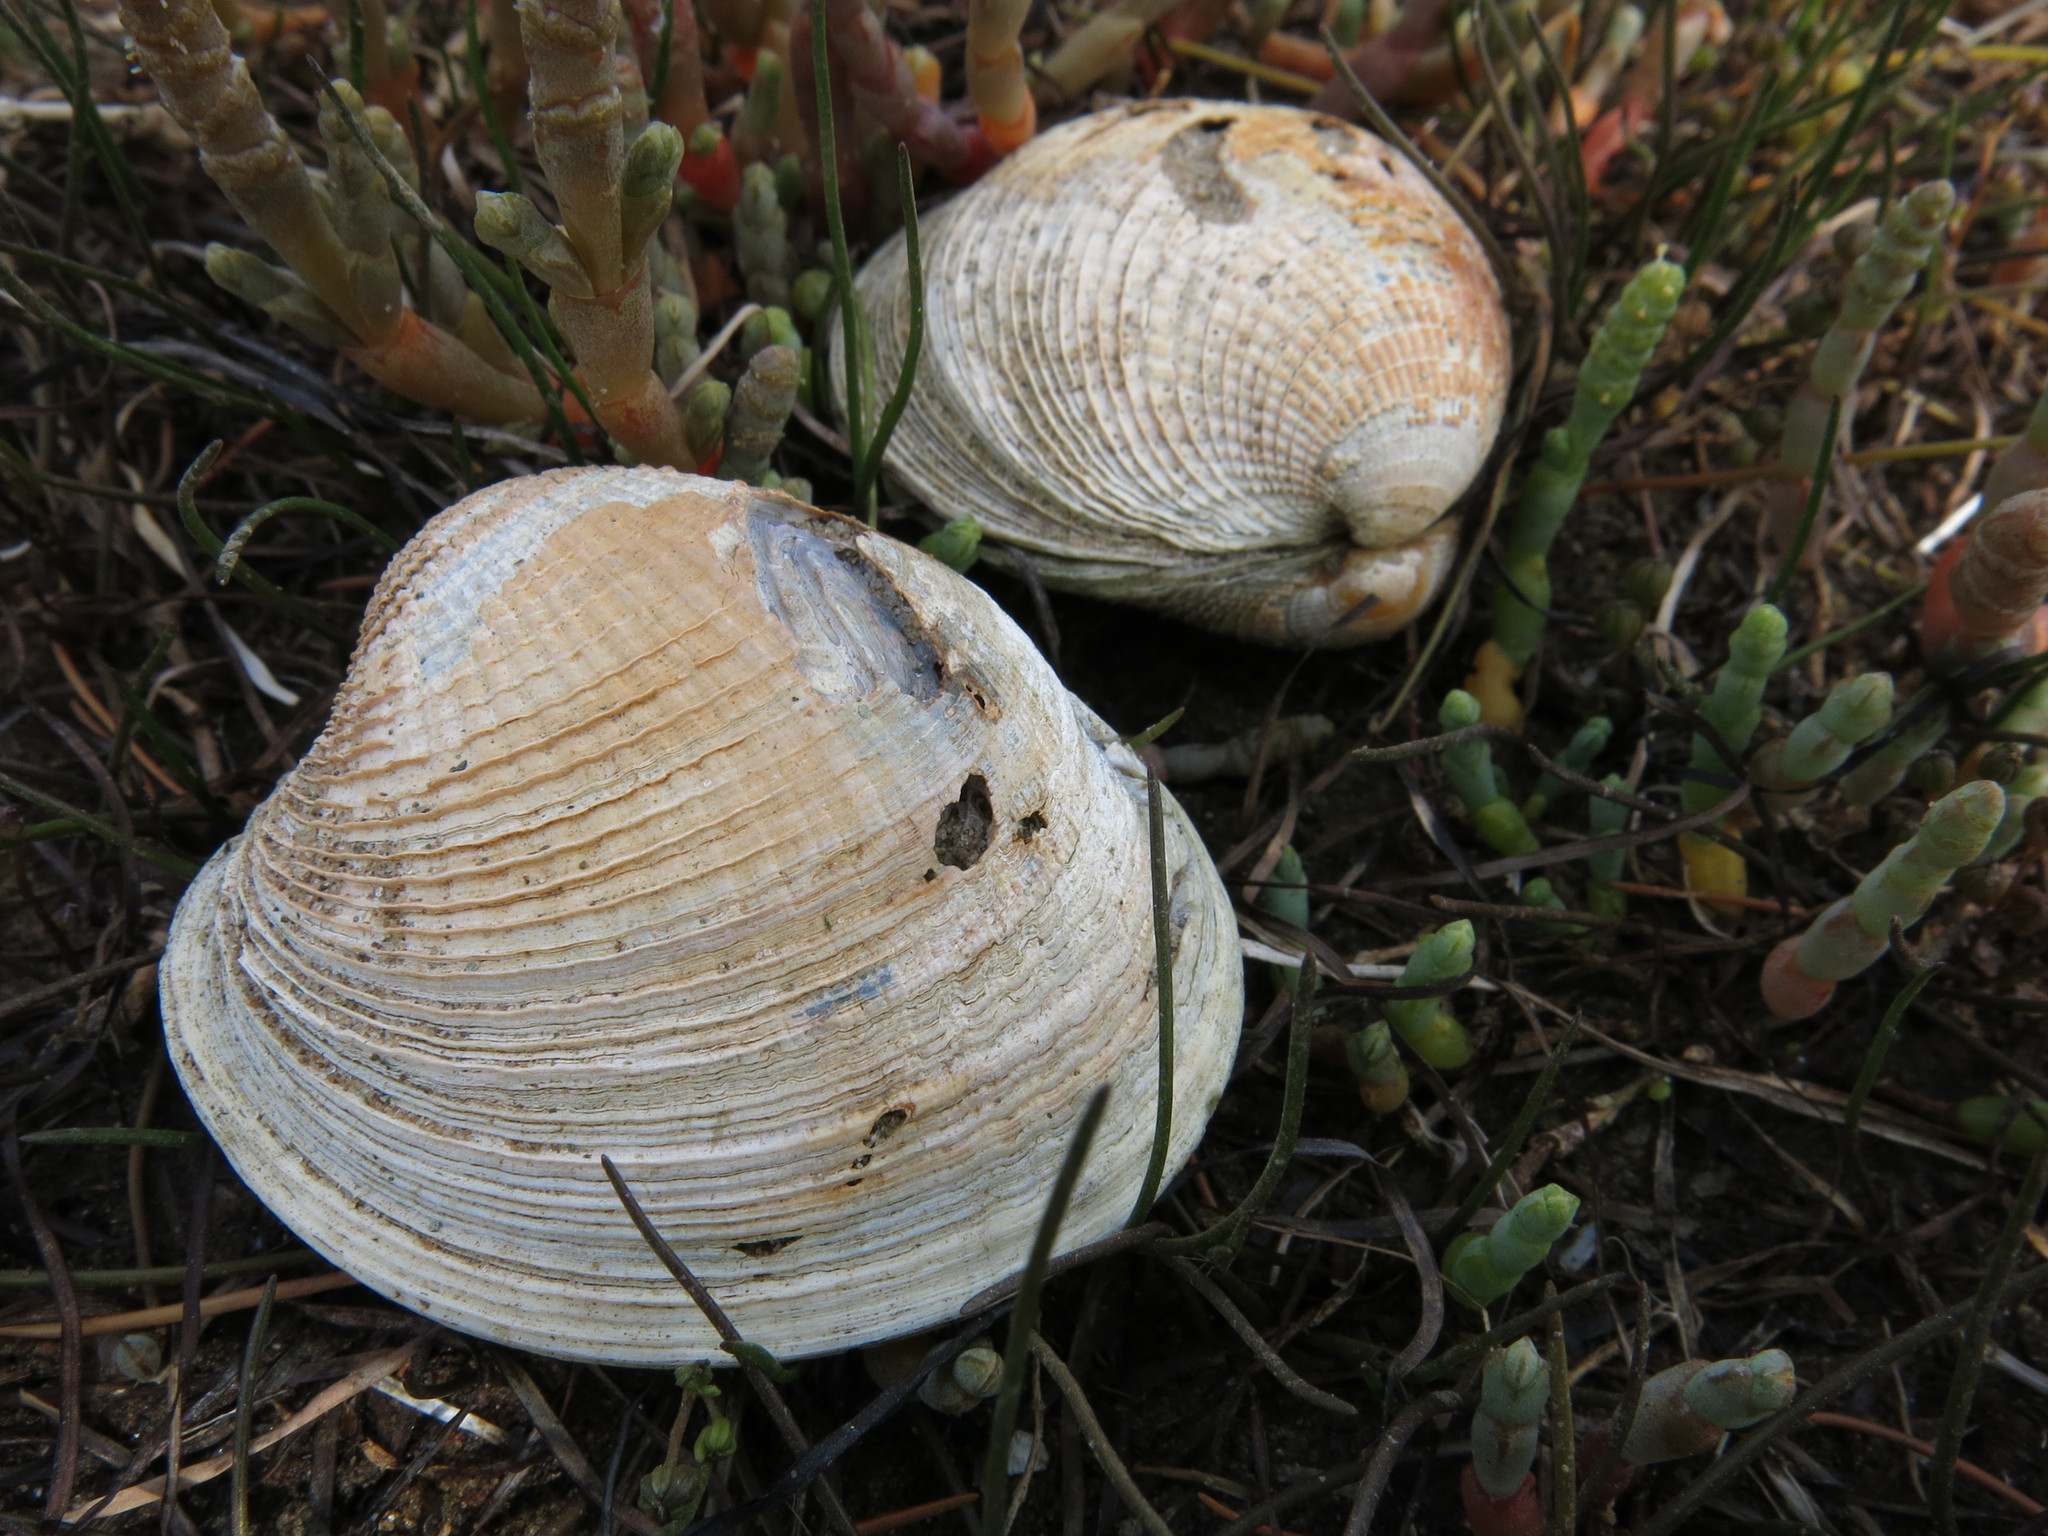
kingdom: Animalia
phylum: Mollusca
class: Bivalvia
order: Venerida
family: Veneridae
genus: Austrovenus
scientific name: Austrovenus stutchburyi
